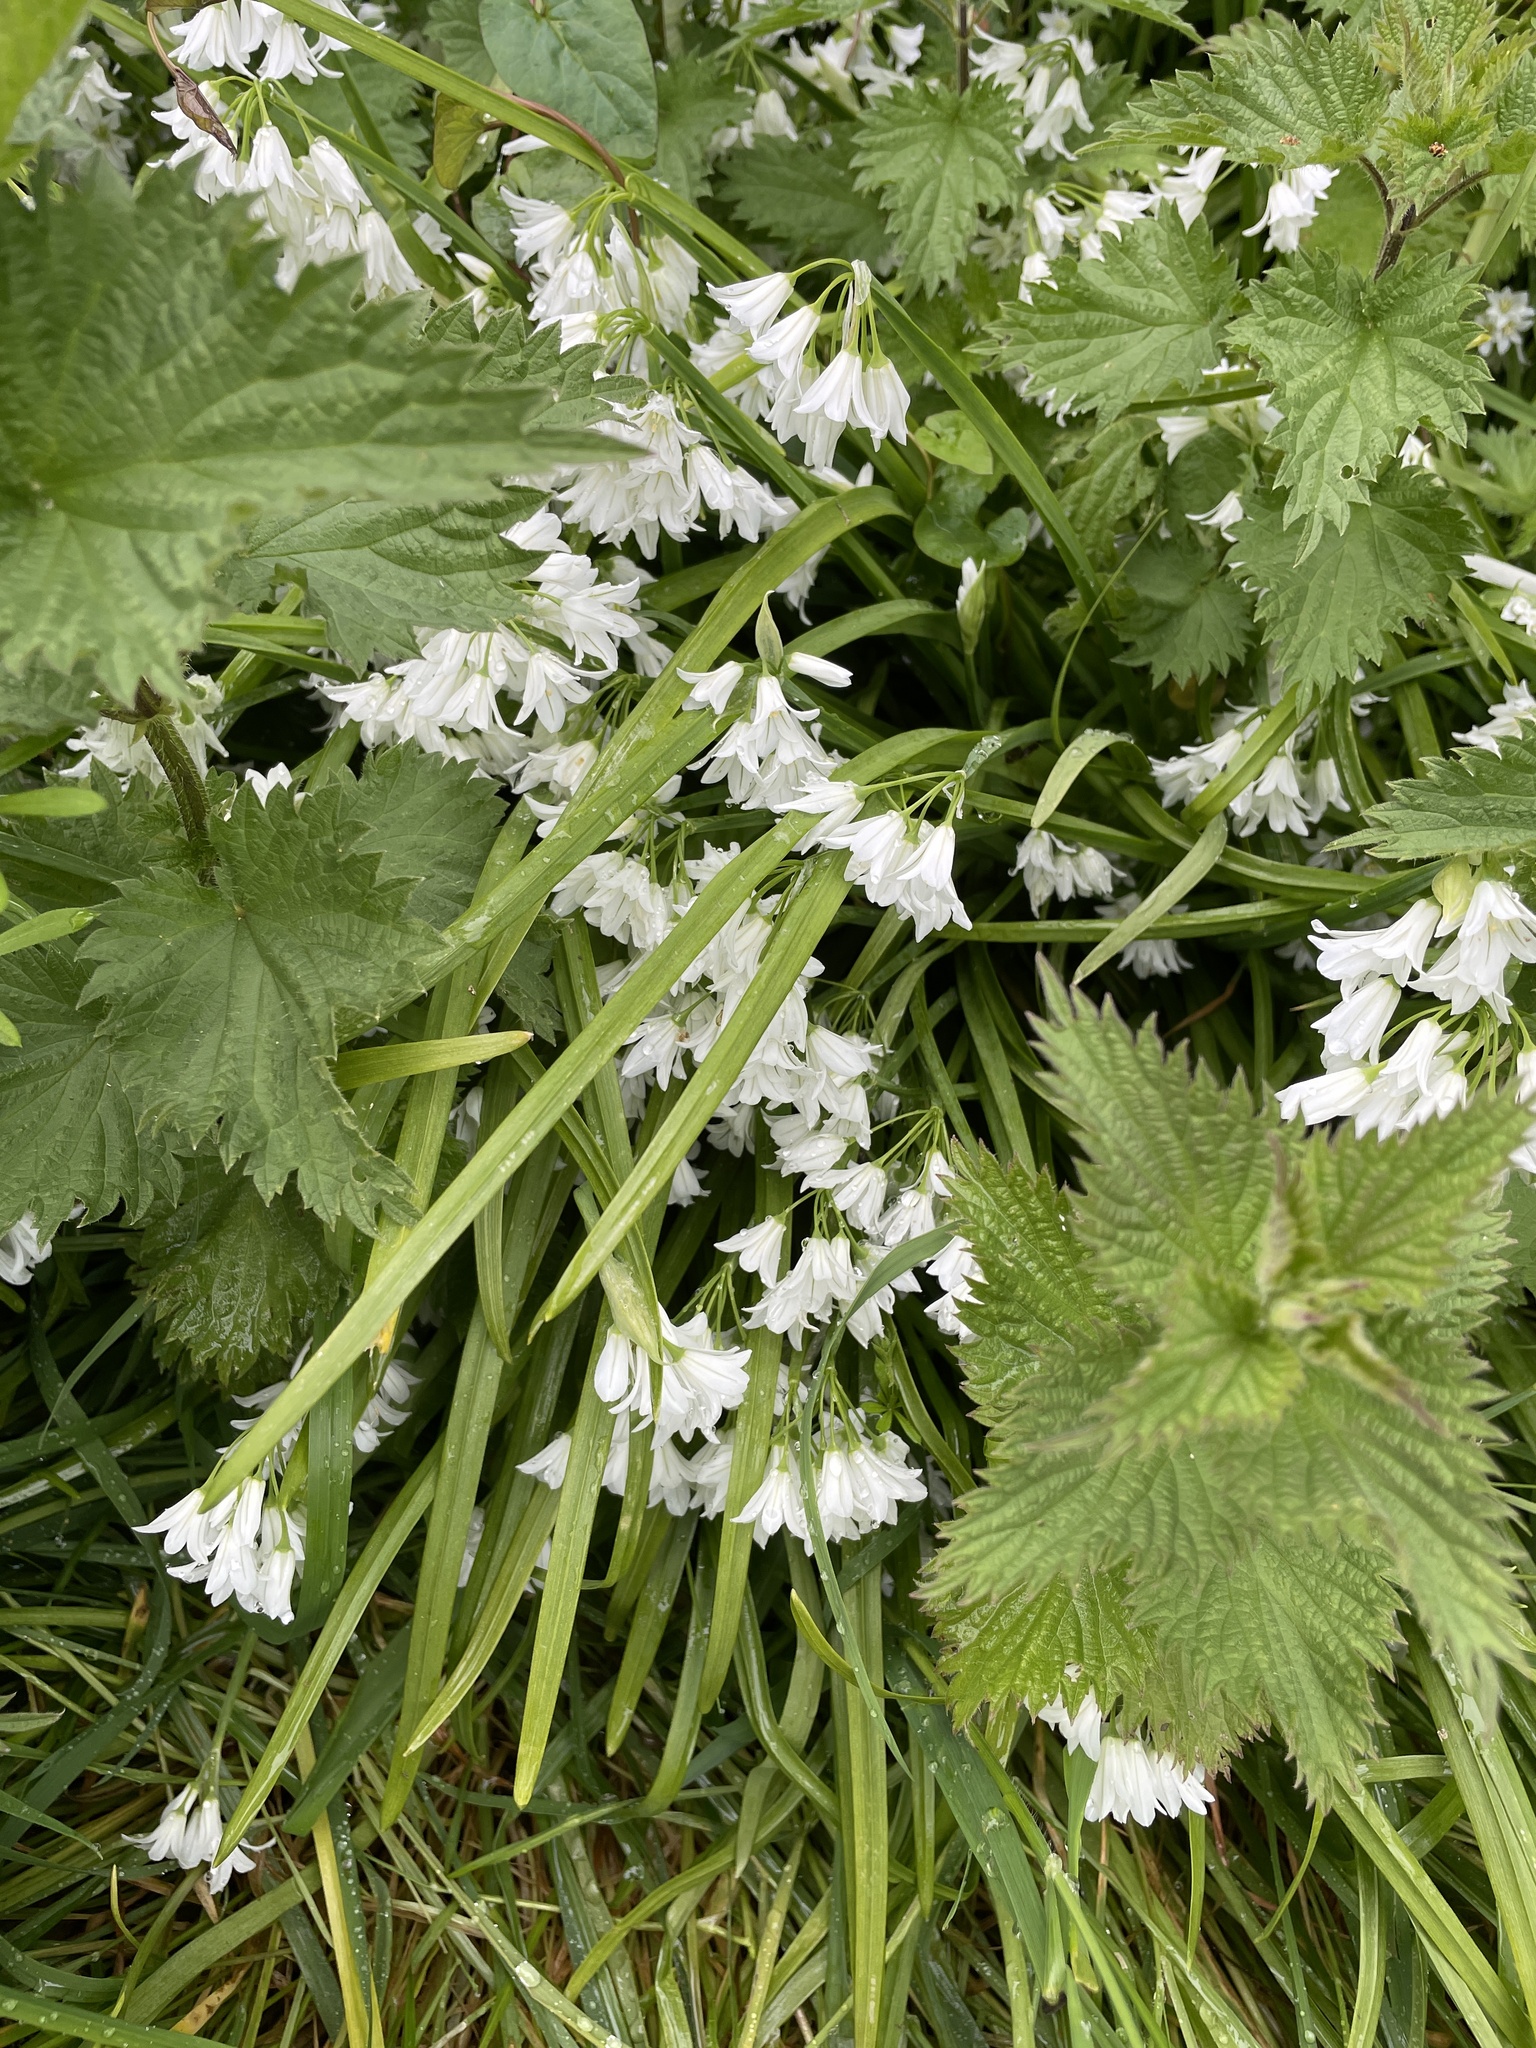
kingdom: Plantae
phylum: Tracheophyta
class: Liliopsida
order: Asparagales
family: Amaryllidaceae
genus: Allium
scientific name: Allium triquetrum
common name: Three-cornered garlic
